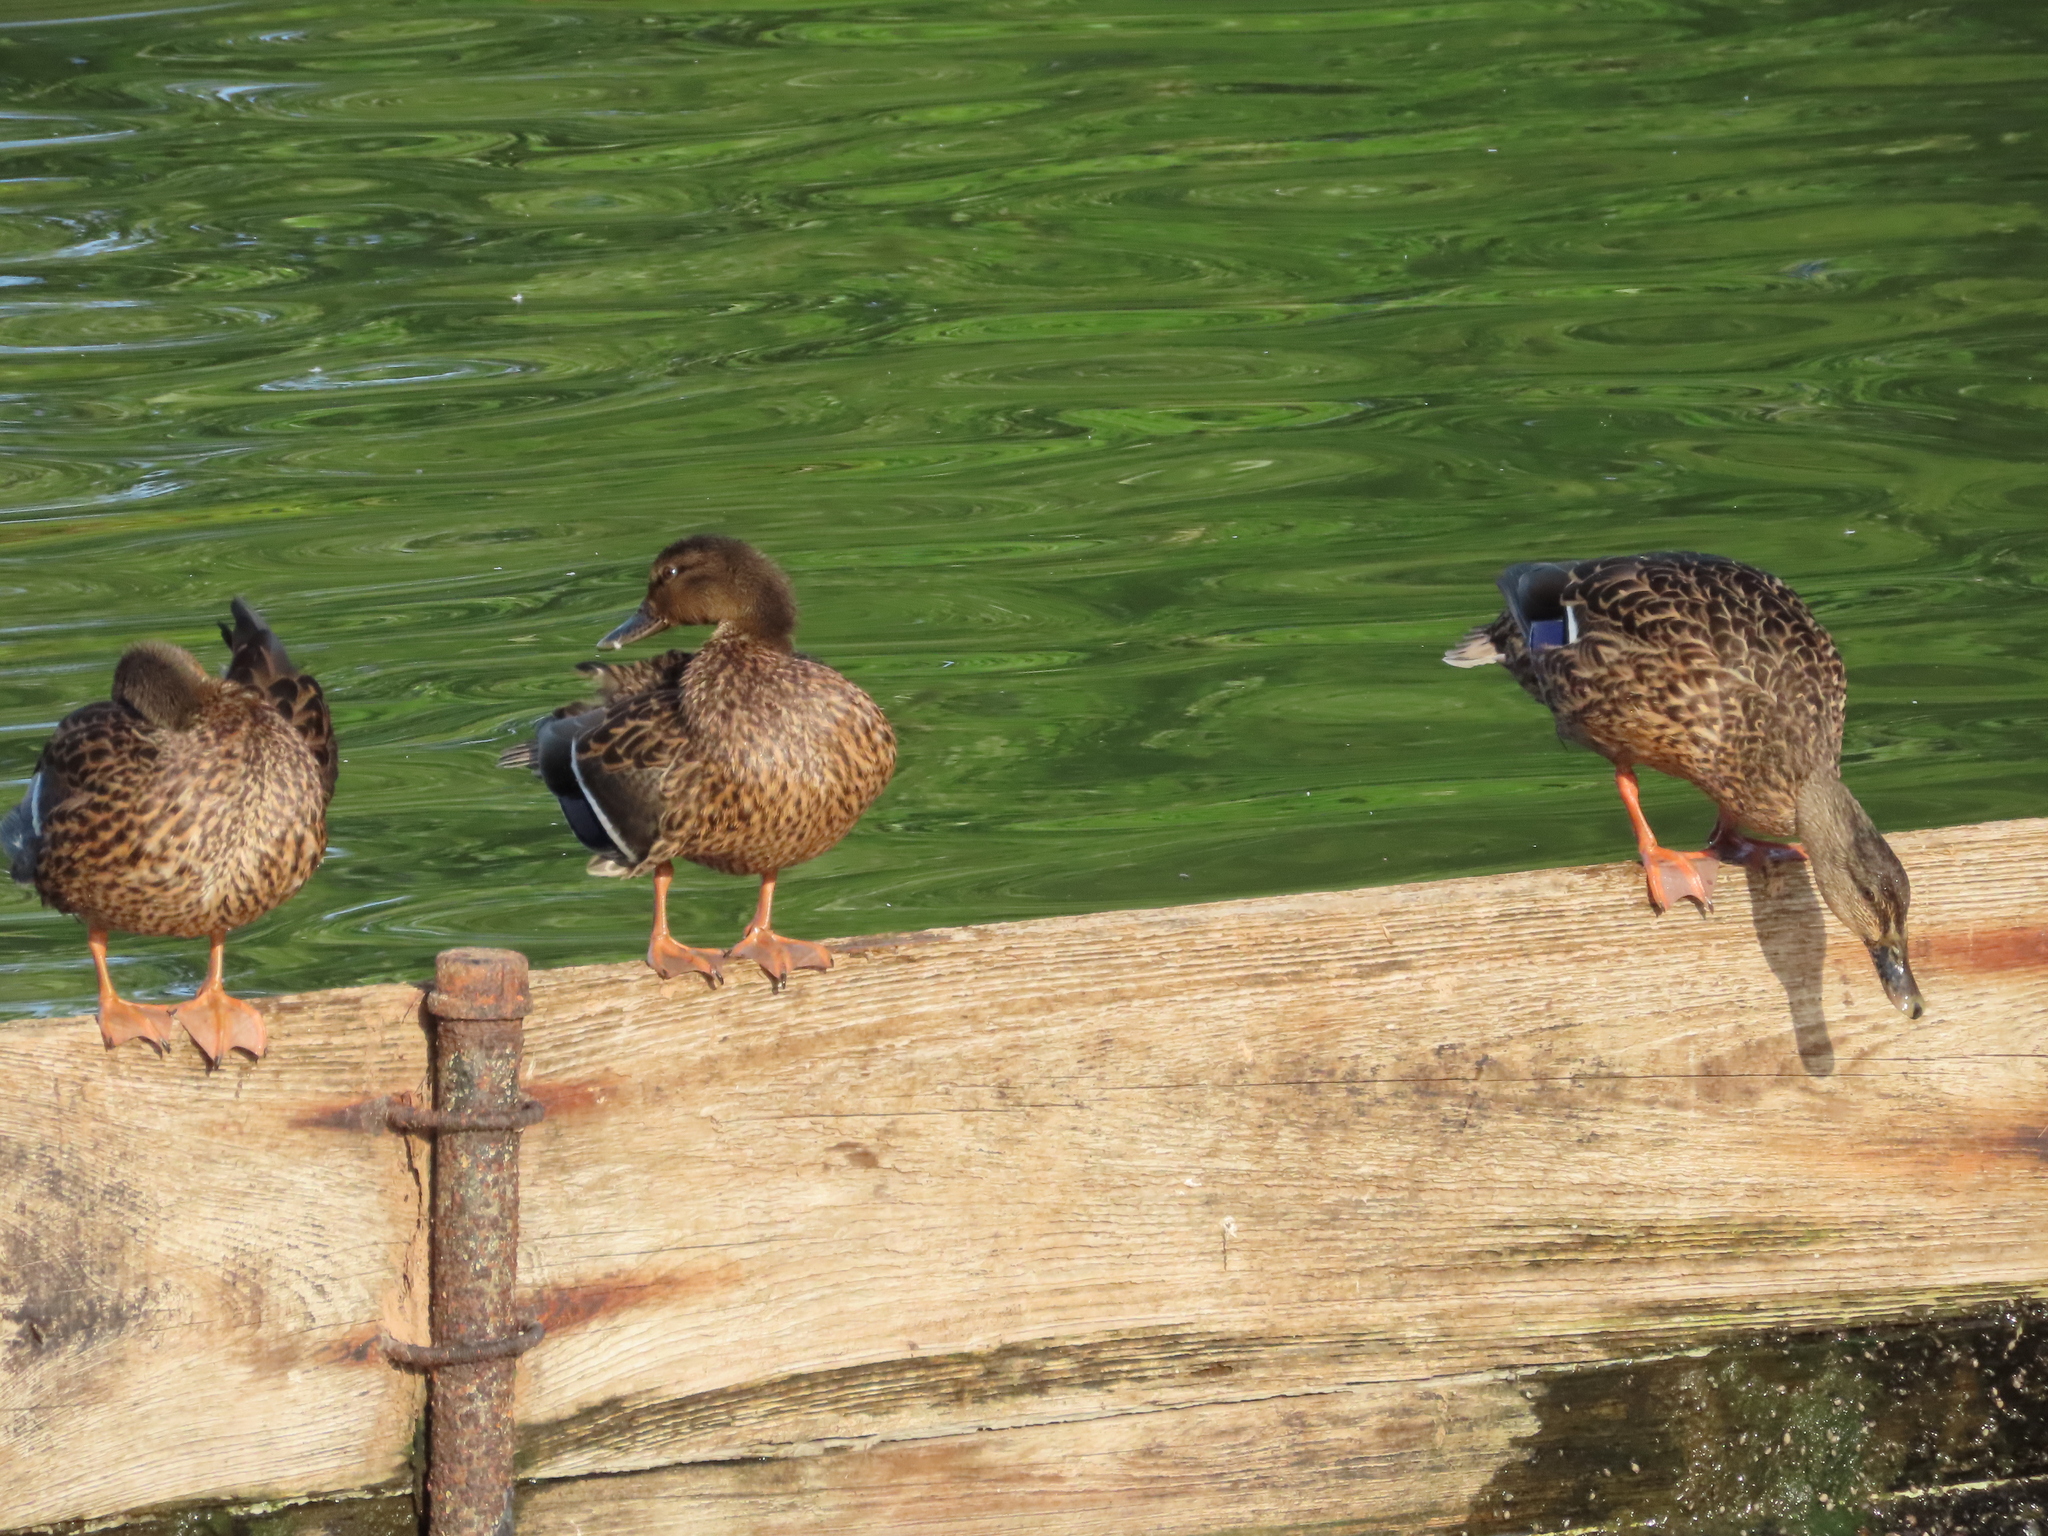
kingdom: Animalia
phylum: Chordata
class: Aves
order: Anseriformes
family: Anatidae
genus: Anas
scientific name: Anas platyrhynchos
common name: Mallard
